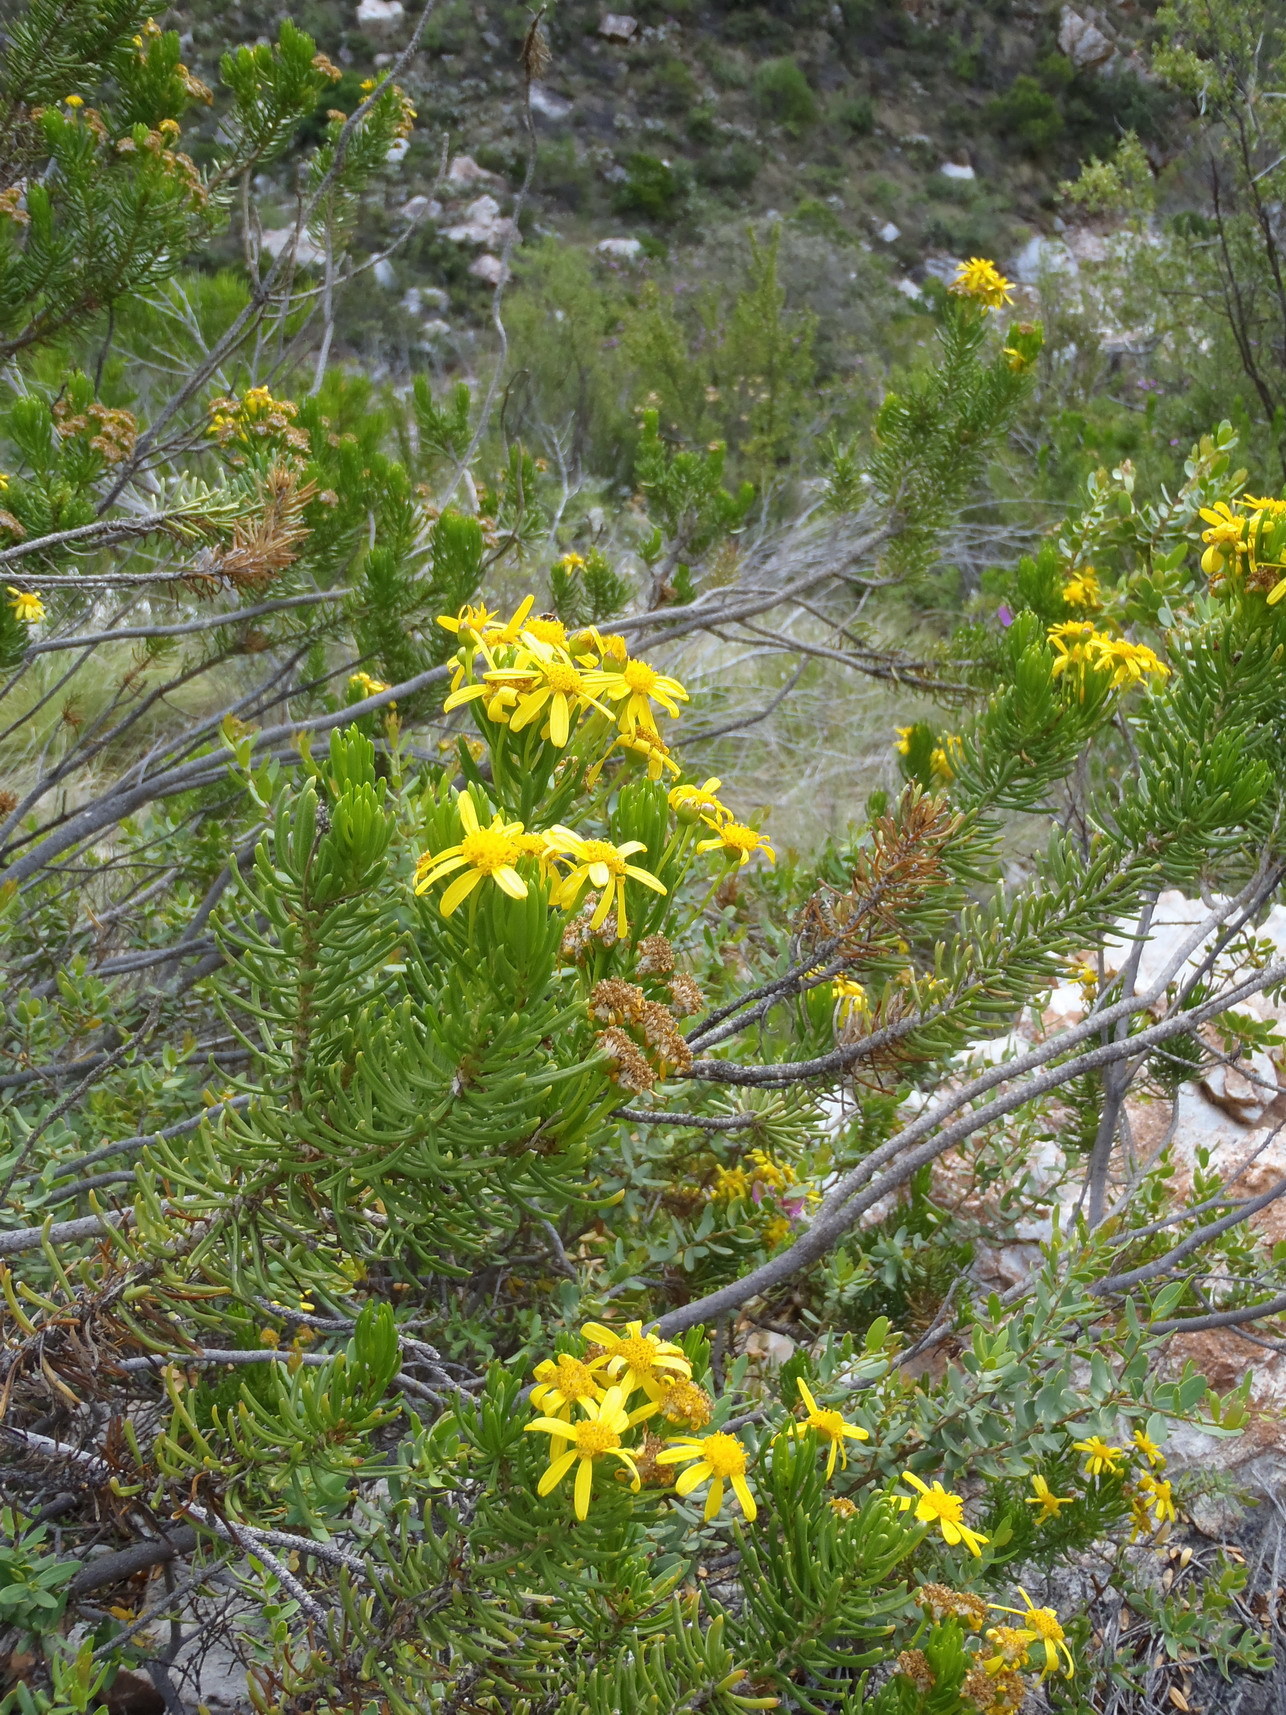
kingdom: Plantae
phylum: Tracheophyta
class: Magnoliopsida
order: Asterales
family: Asteraceae
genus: Euryops
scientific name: Euryops spathaceus
